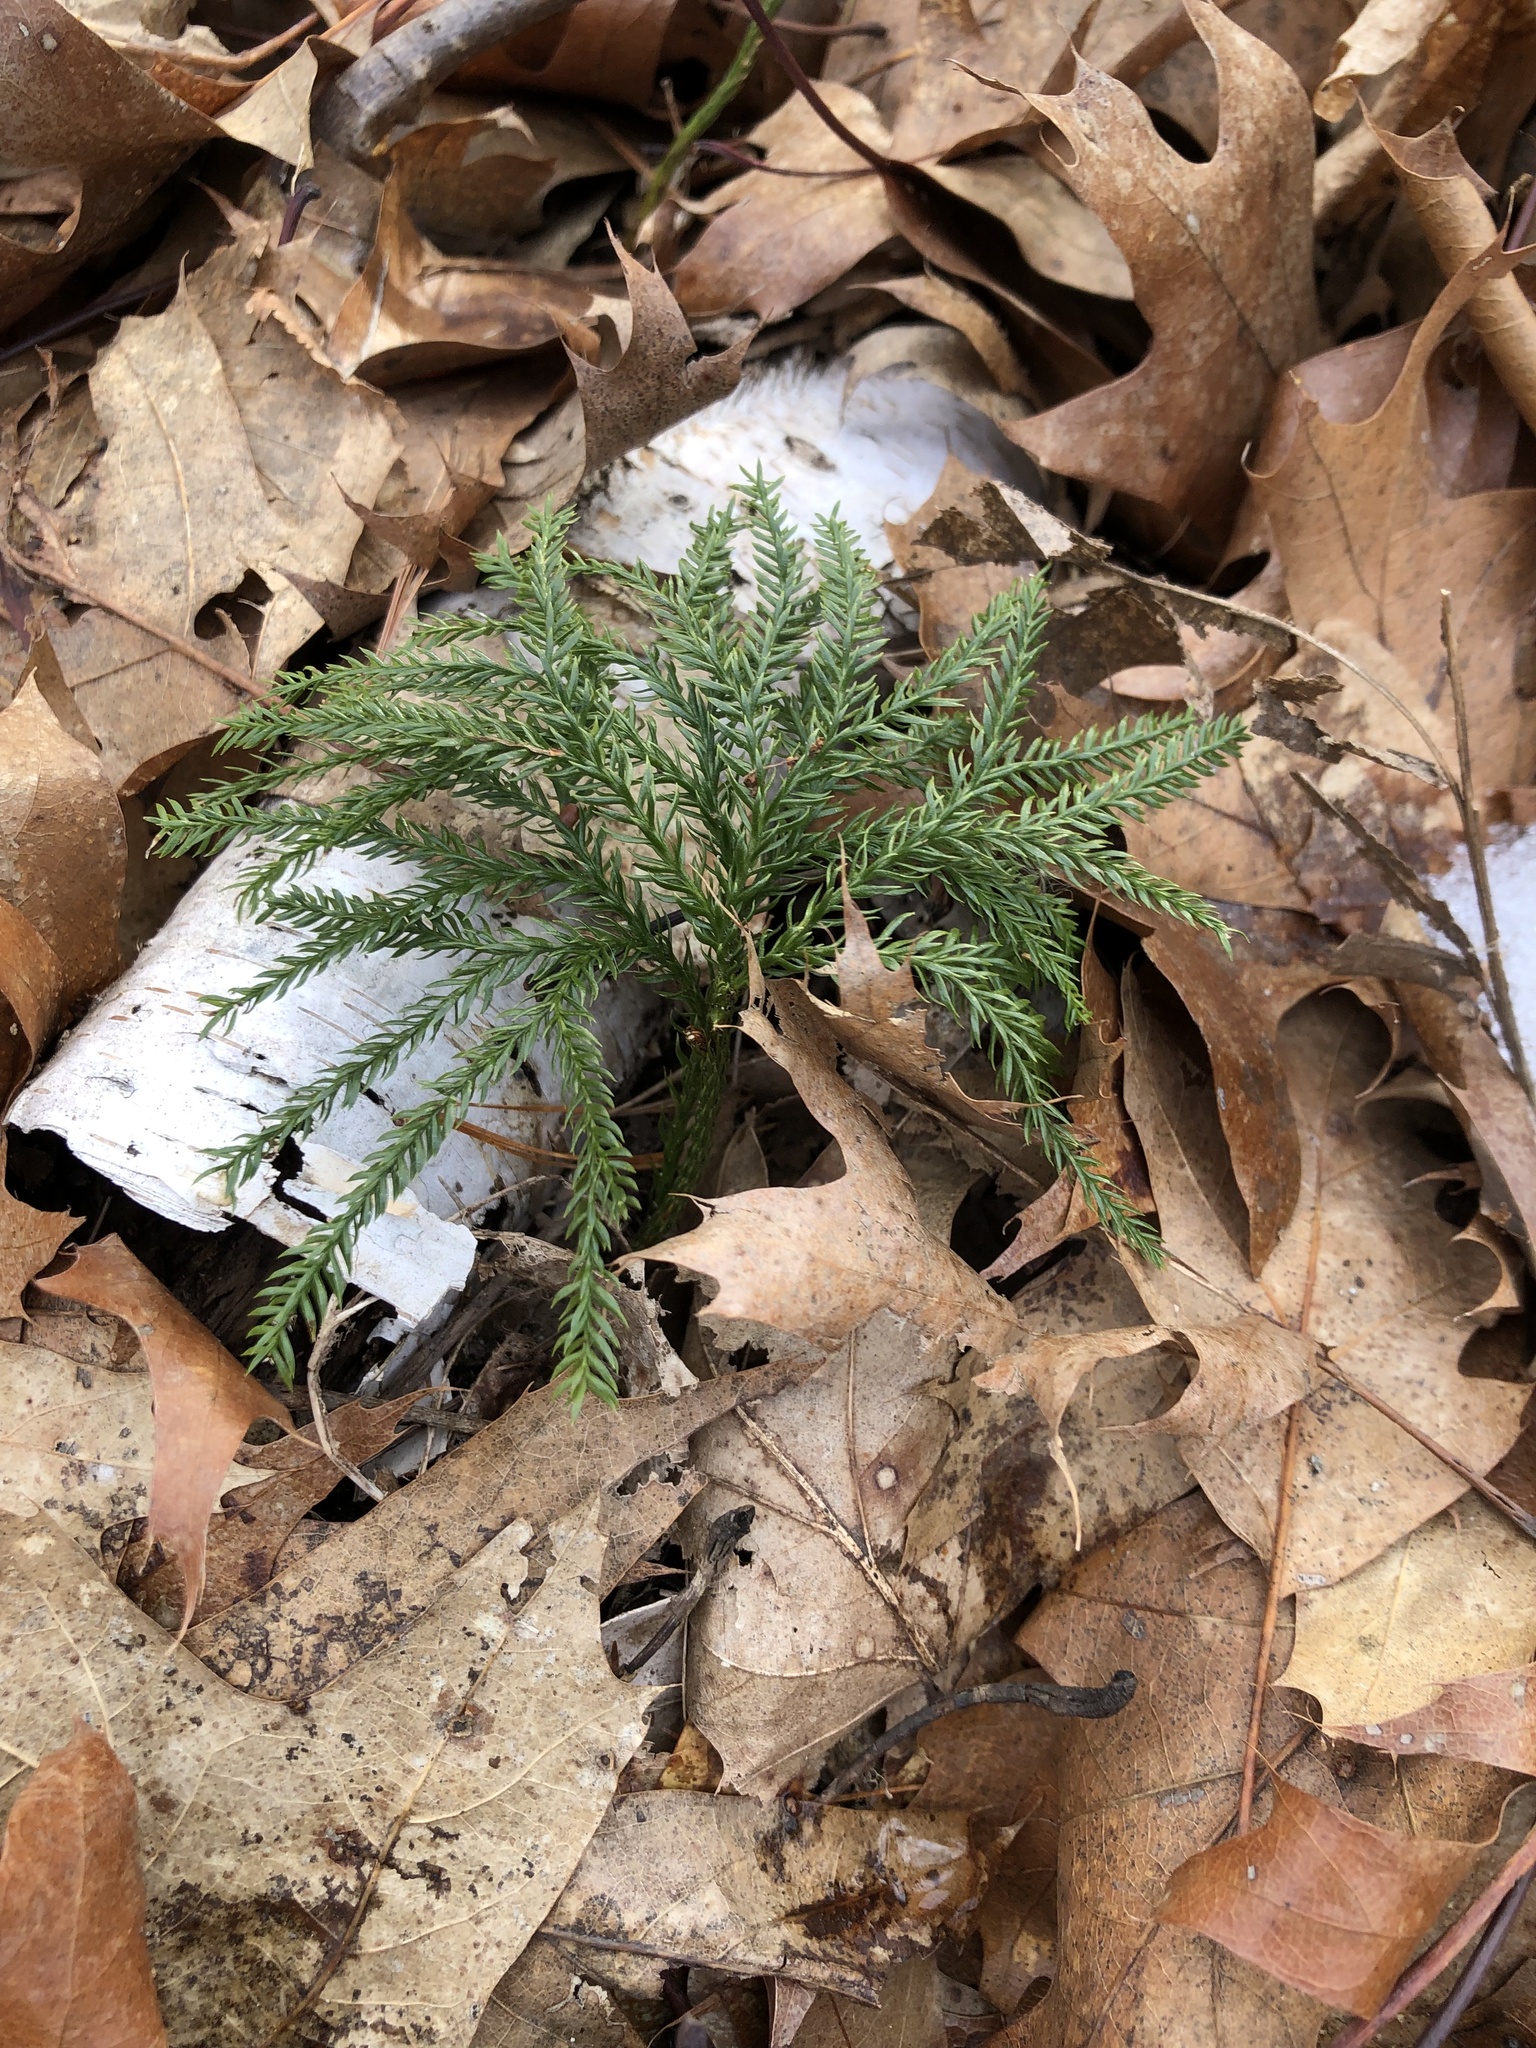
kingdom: Plantae
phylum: Tracheophyta
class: Lycopodiopsida
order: Lycopodiales
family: Lycopodiaceae
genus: Dendrolycopodium
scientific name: Dendrolycopodium obscurum
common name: Common ground-pine
